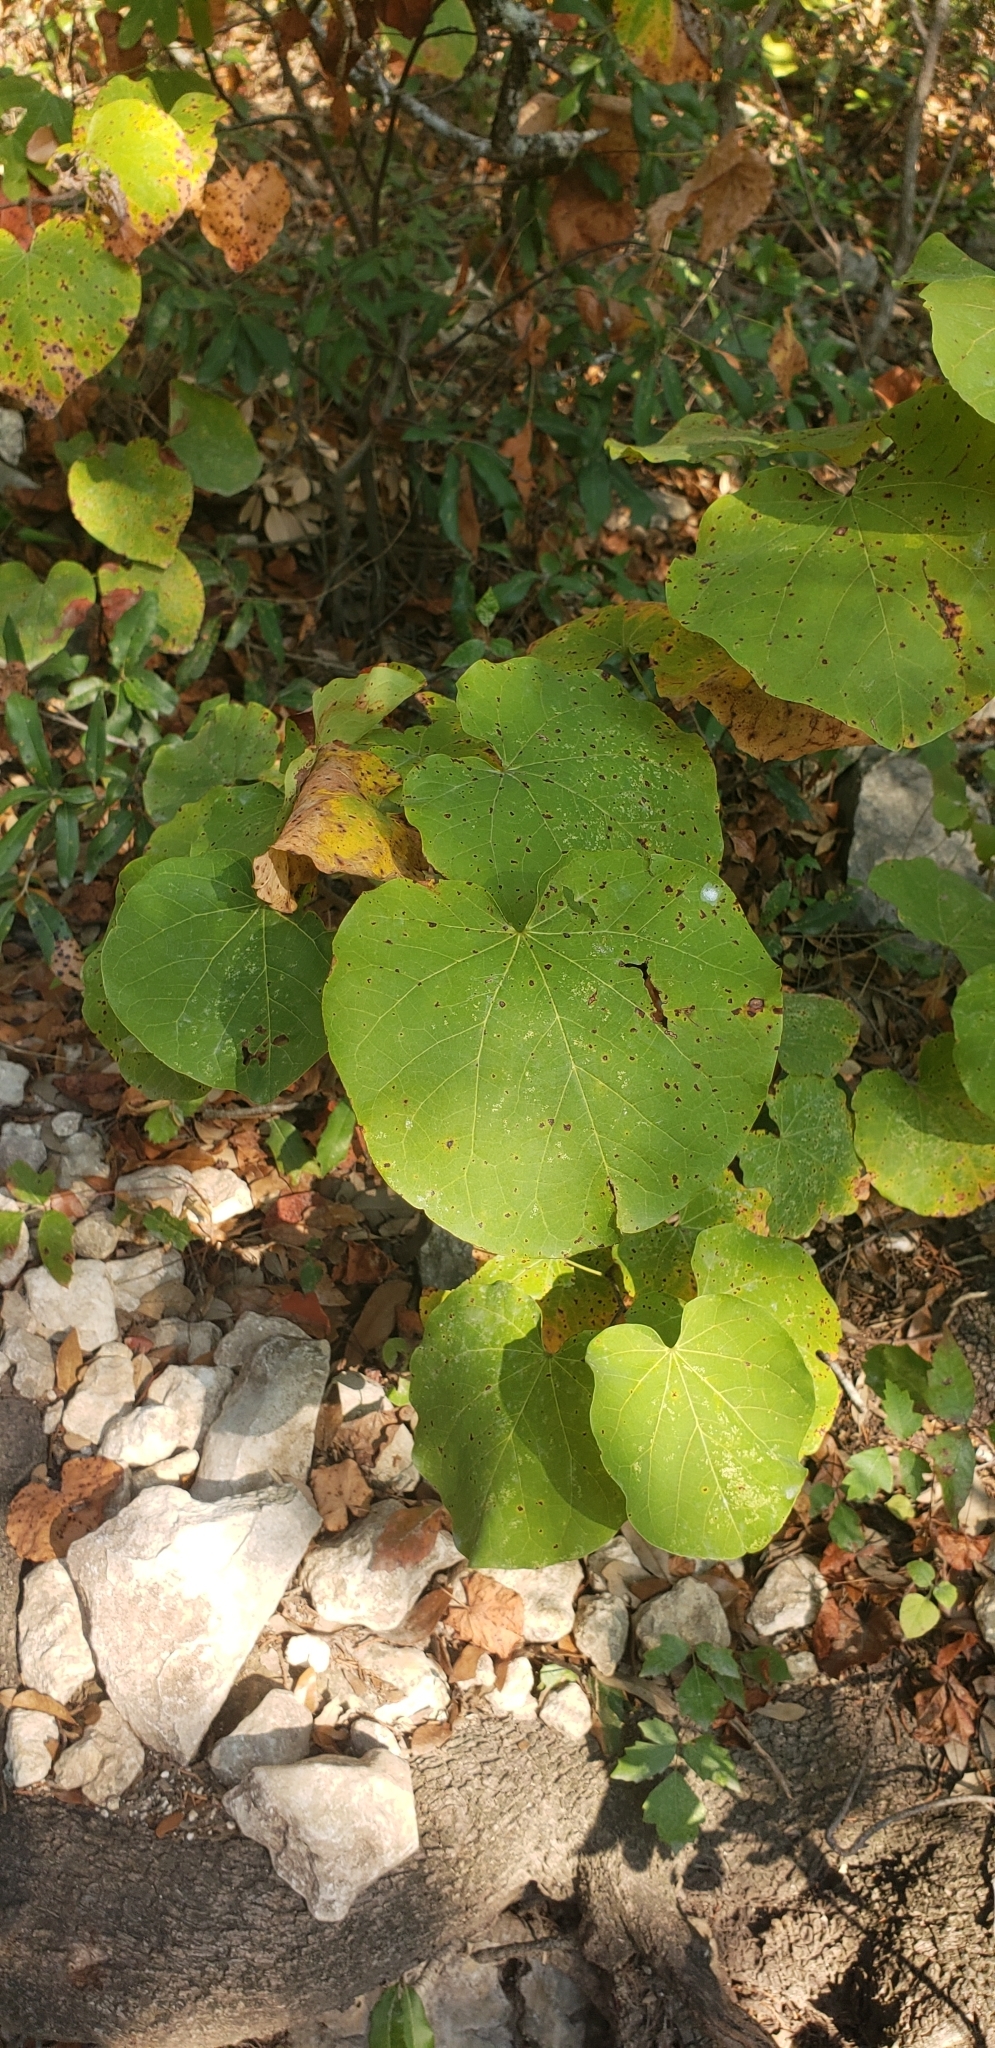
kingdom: Plantae
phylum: Tracheophyta
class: Magnoliopsida
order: Fabales
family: Fabaceae
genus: Cercis
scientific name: Cercis canadensis
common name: Eastern redbud
